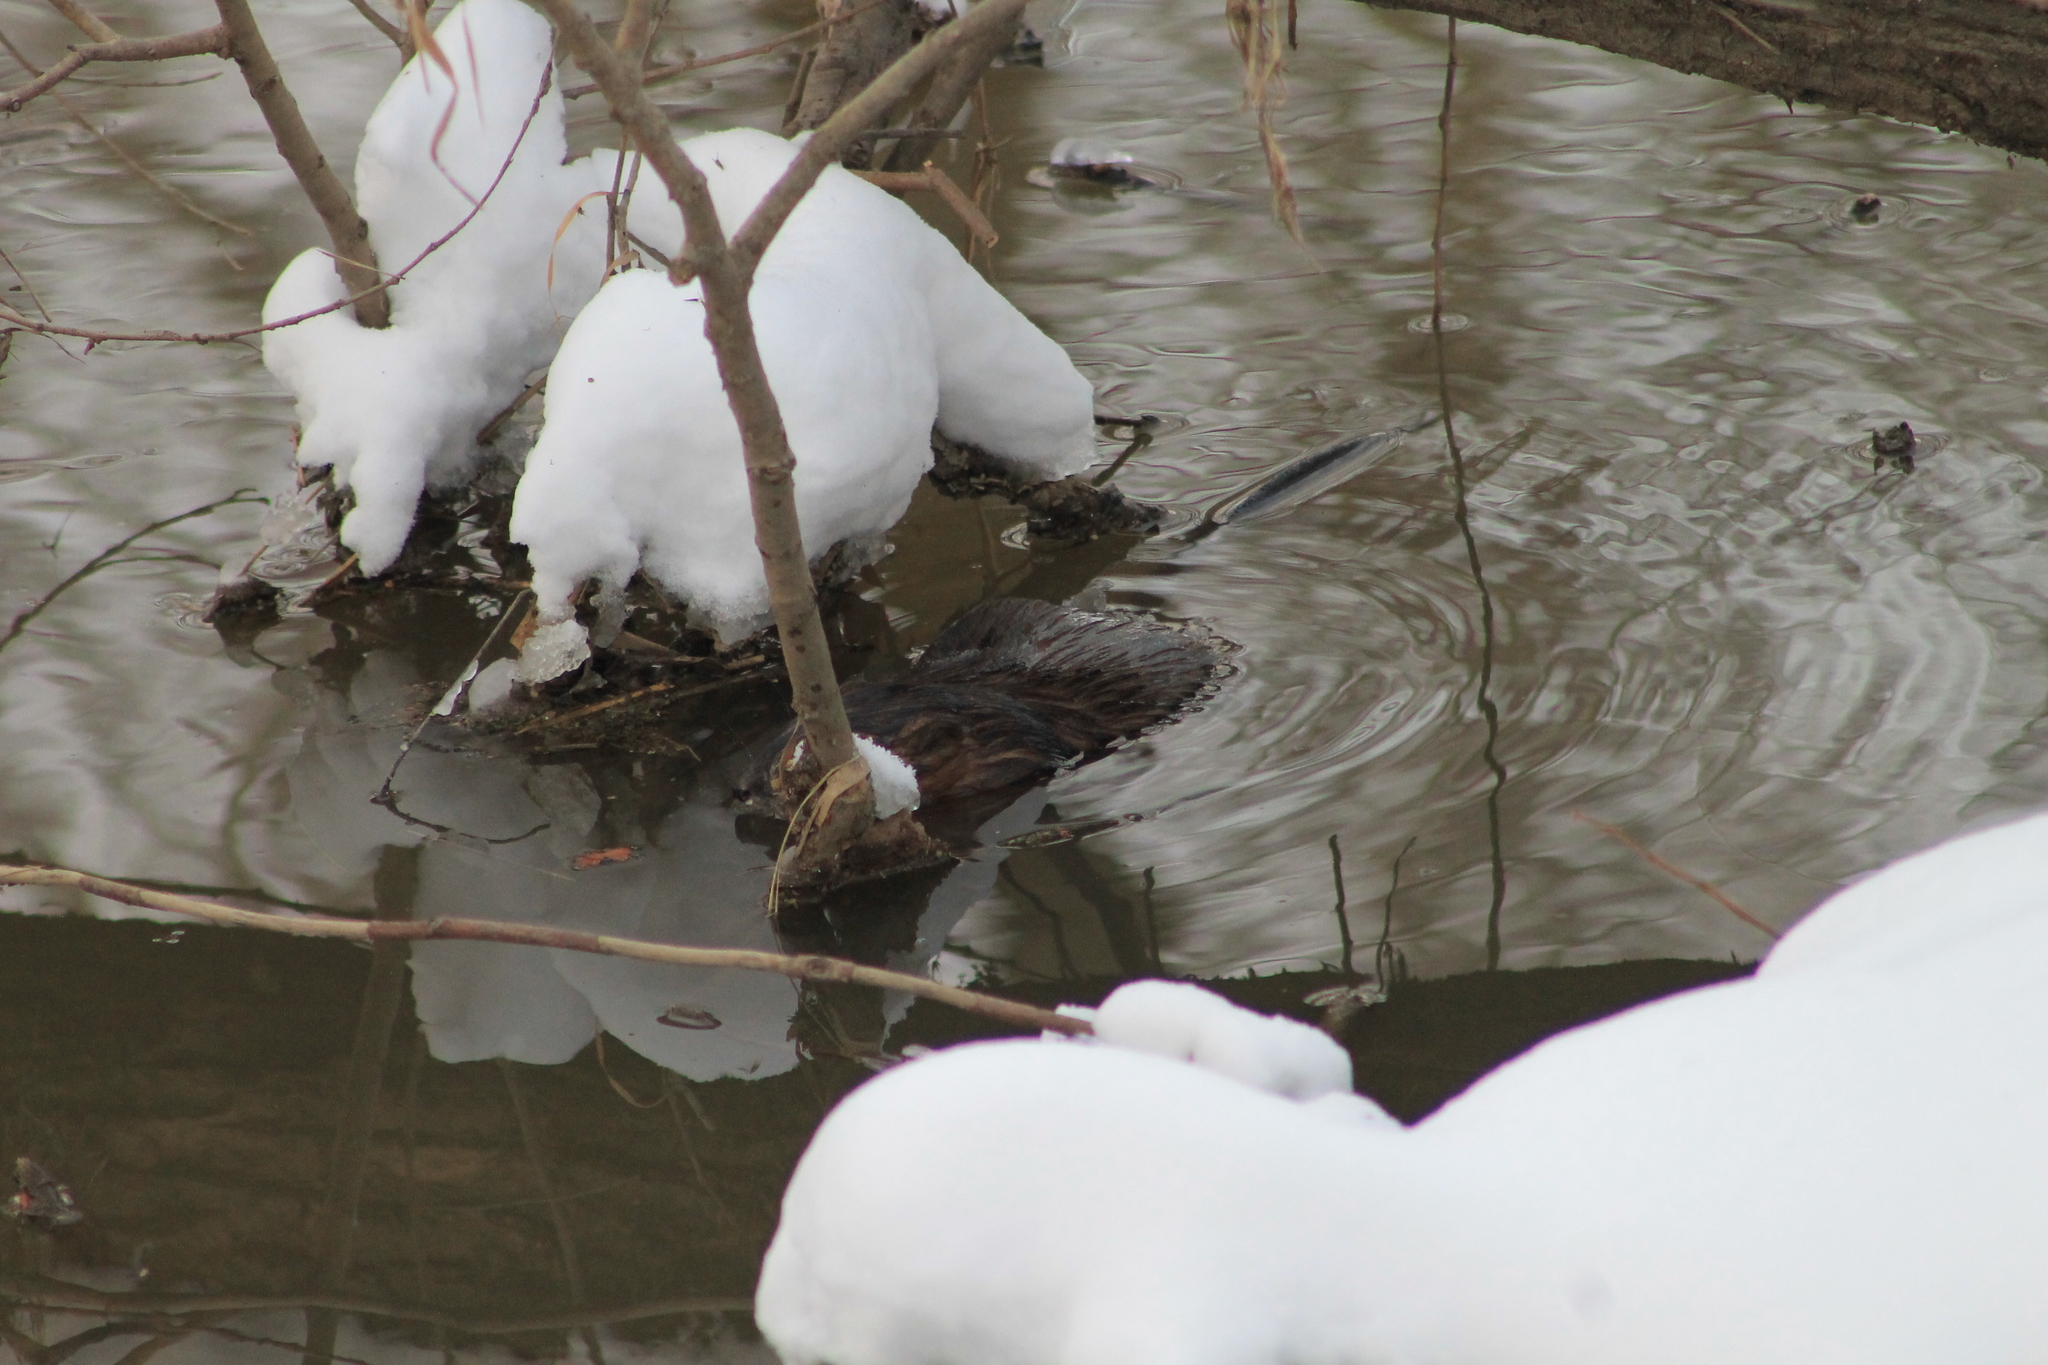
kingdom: Animalia
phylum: Chordata
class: Mammalia
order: Rodentia
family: Cricetidae
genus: Ondatra
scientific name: Ondatra zibethicus
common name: Muskrat
